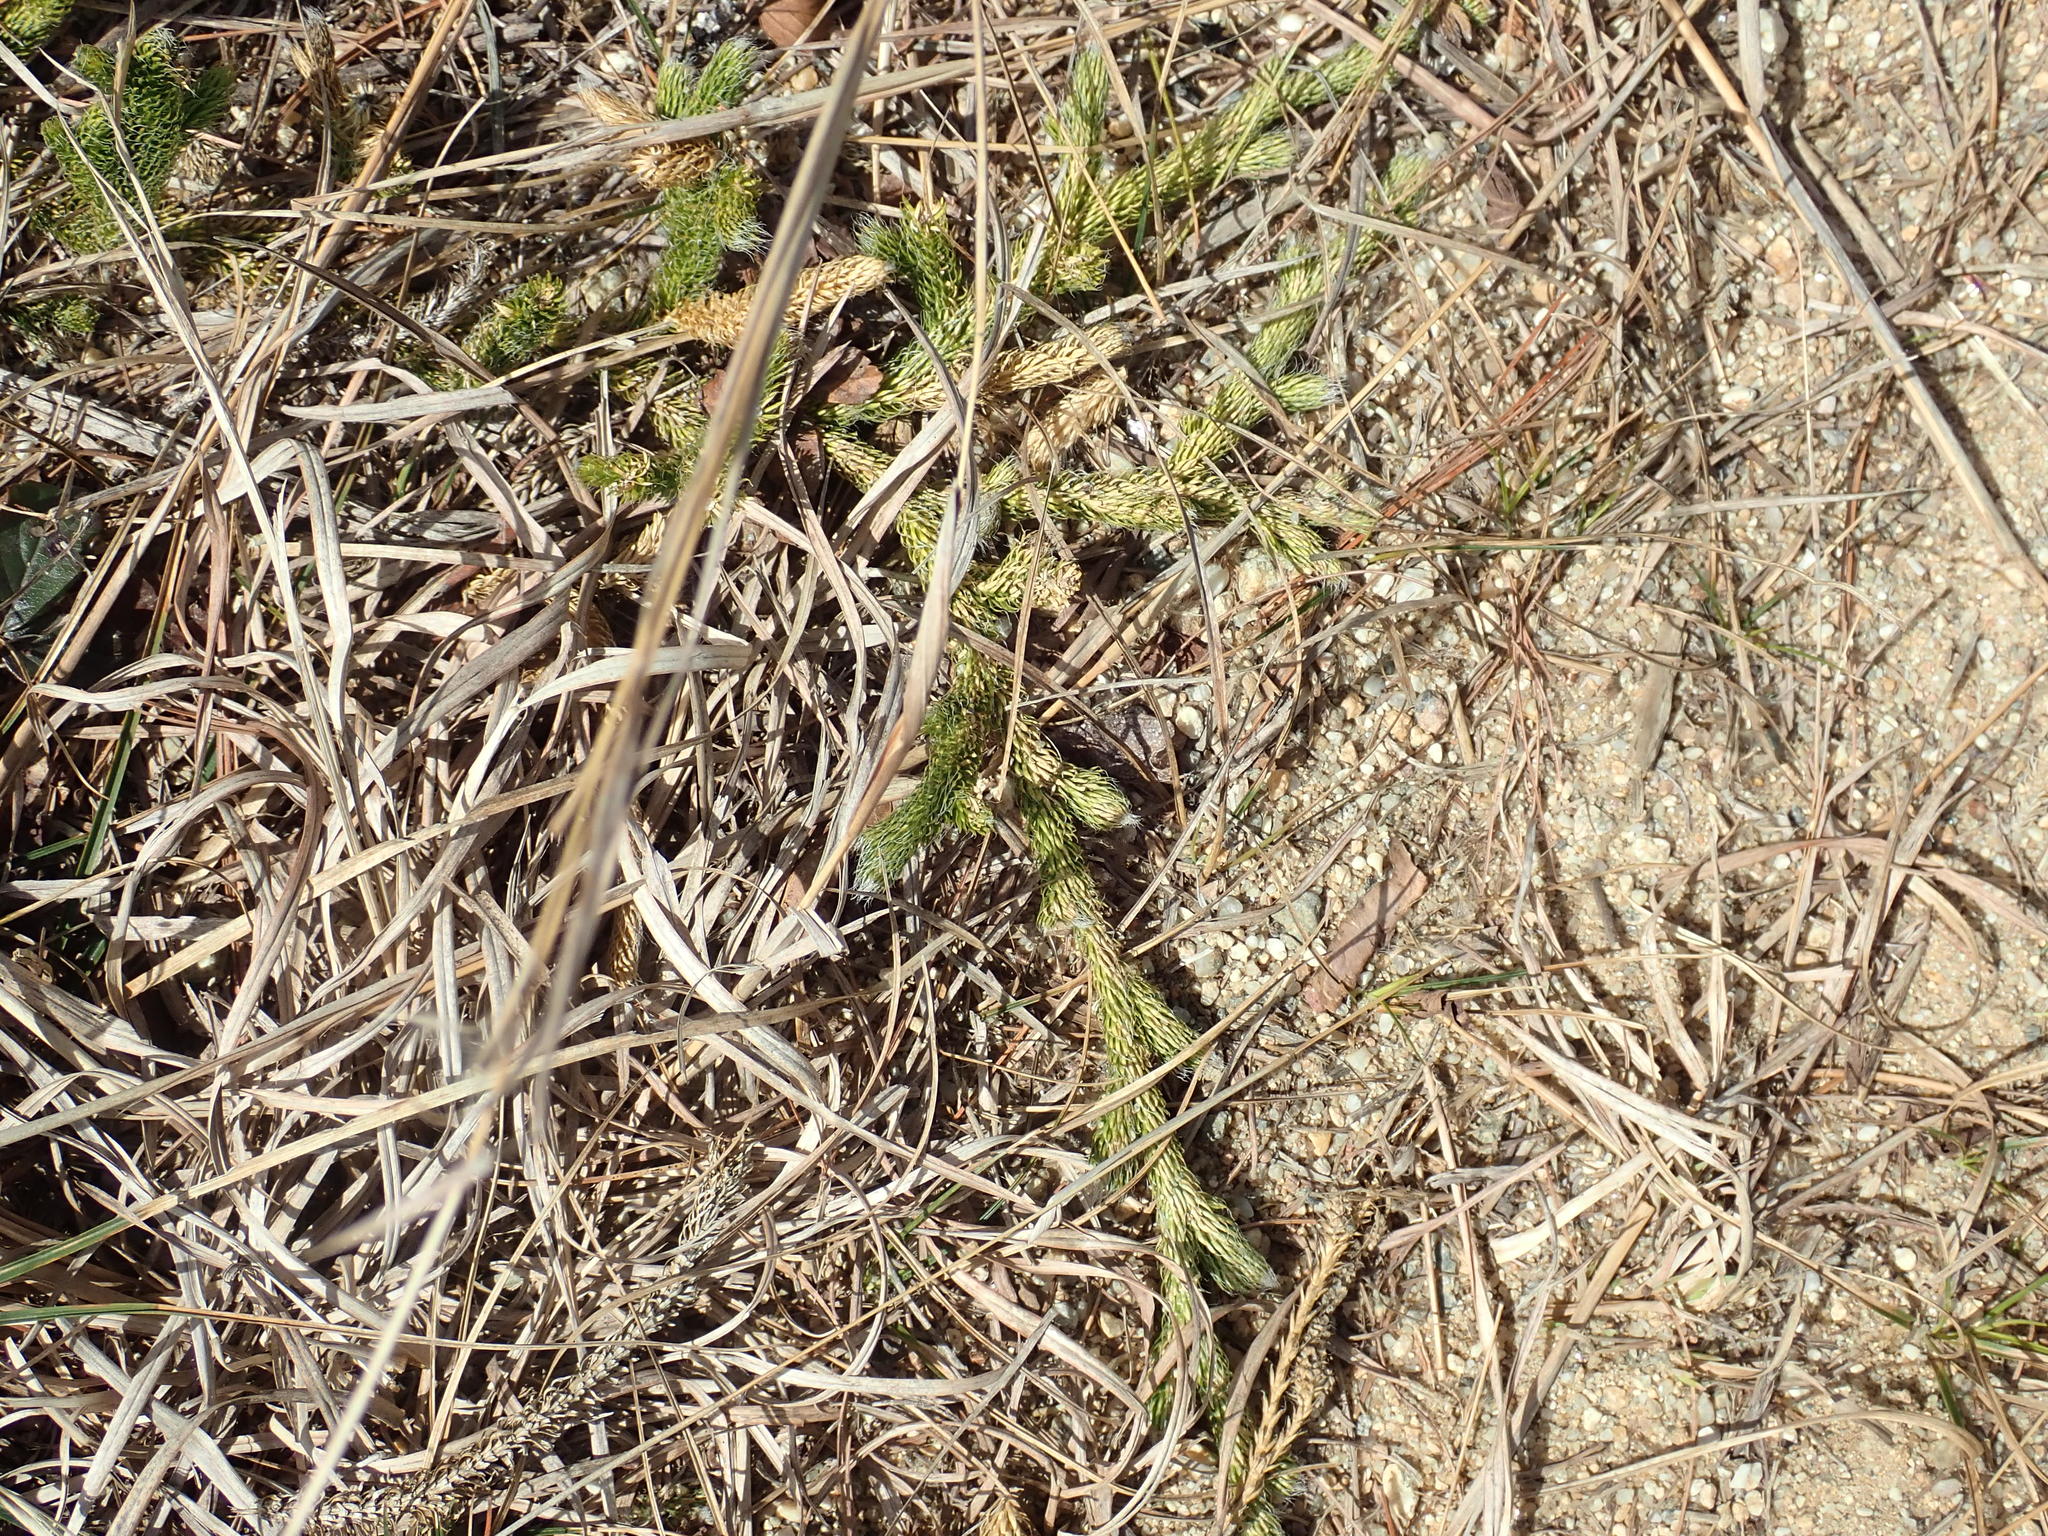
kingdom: Plantae
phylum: Tracheophyta
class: Lycopodiopsida
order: Lycopodiales
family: Lycopodiaceae
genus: Lycopodium
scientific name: Lycopodium clavatum
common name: Stag's-horn clubmoss
